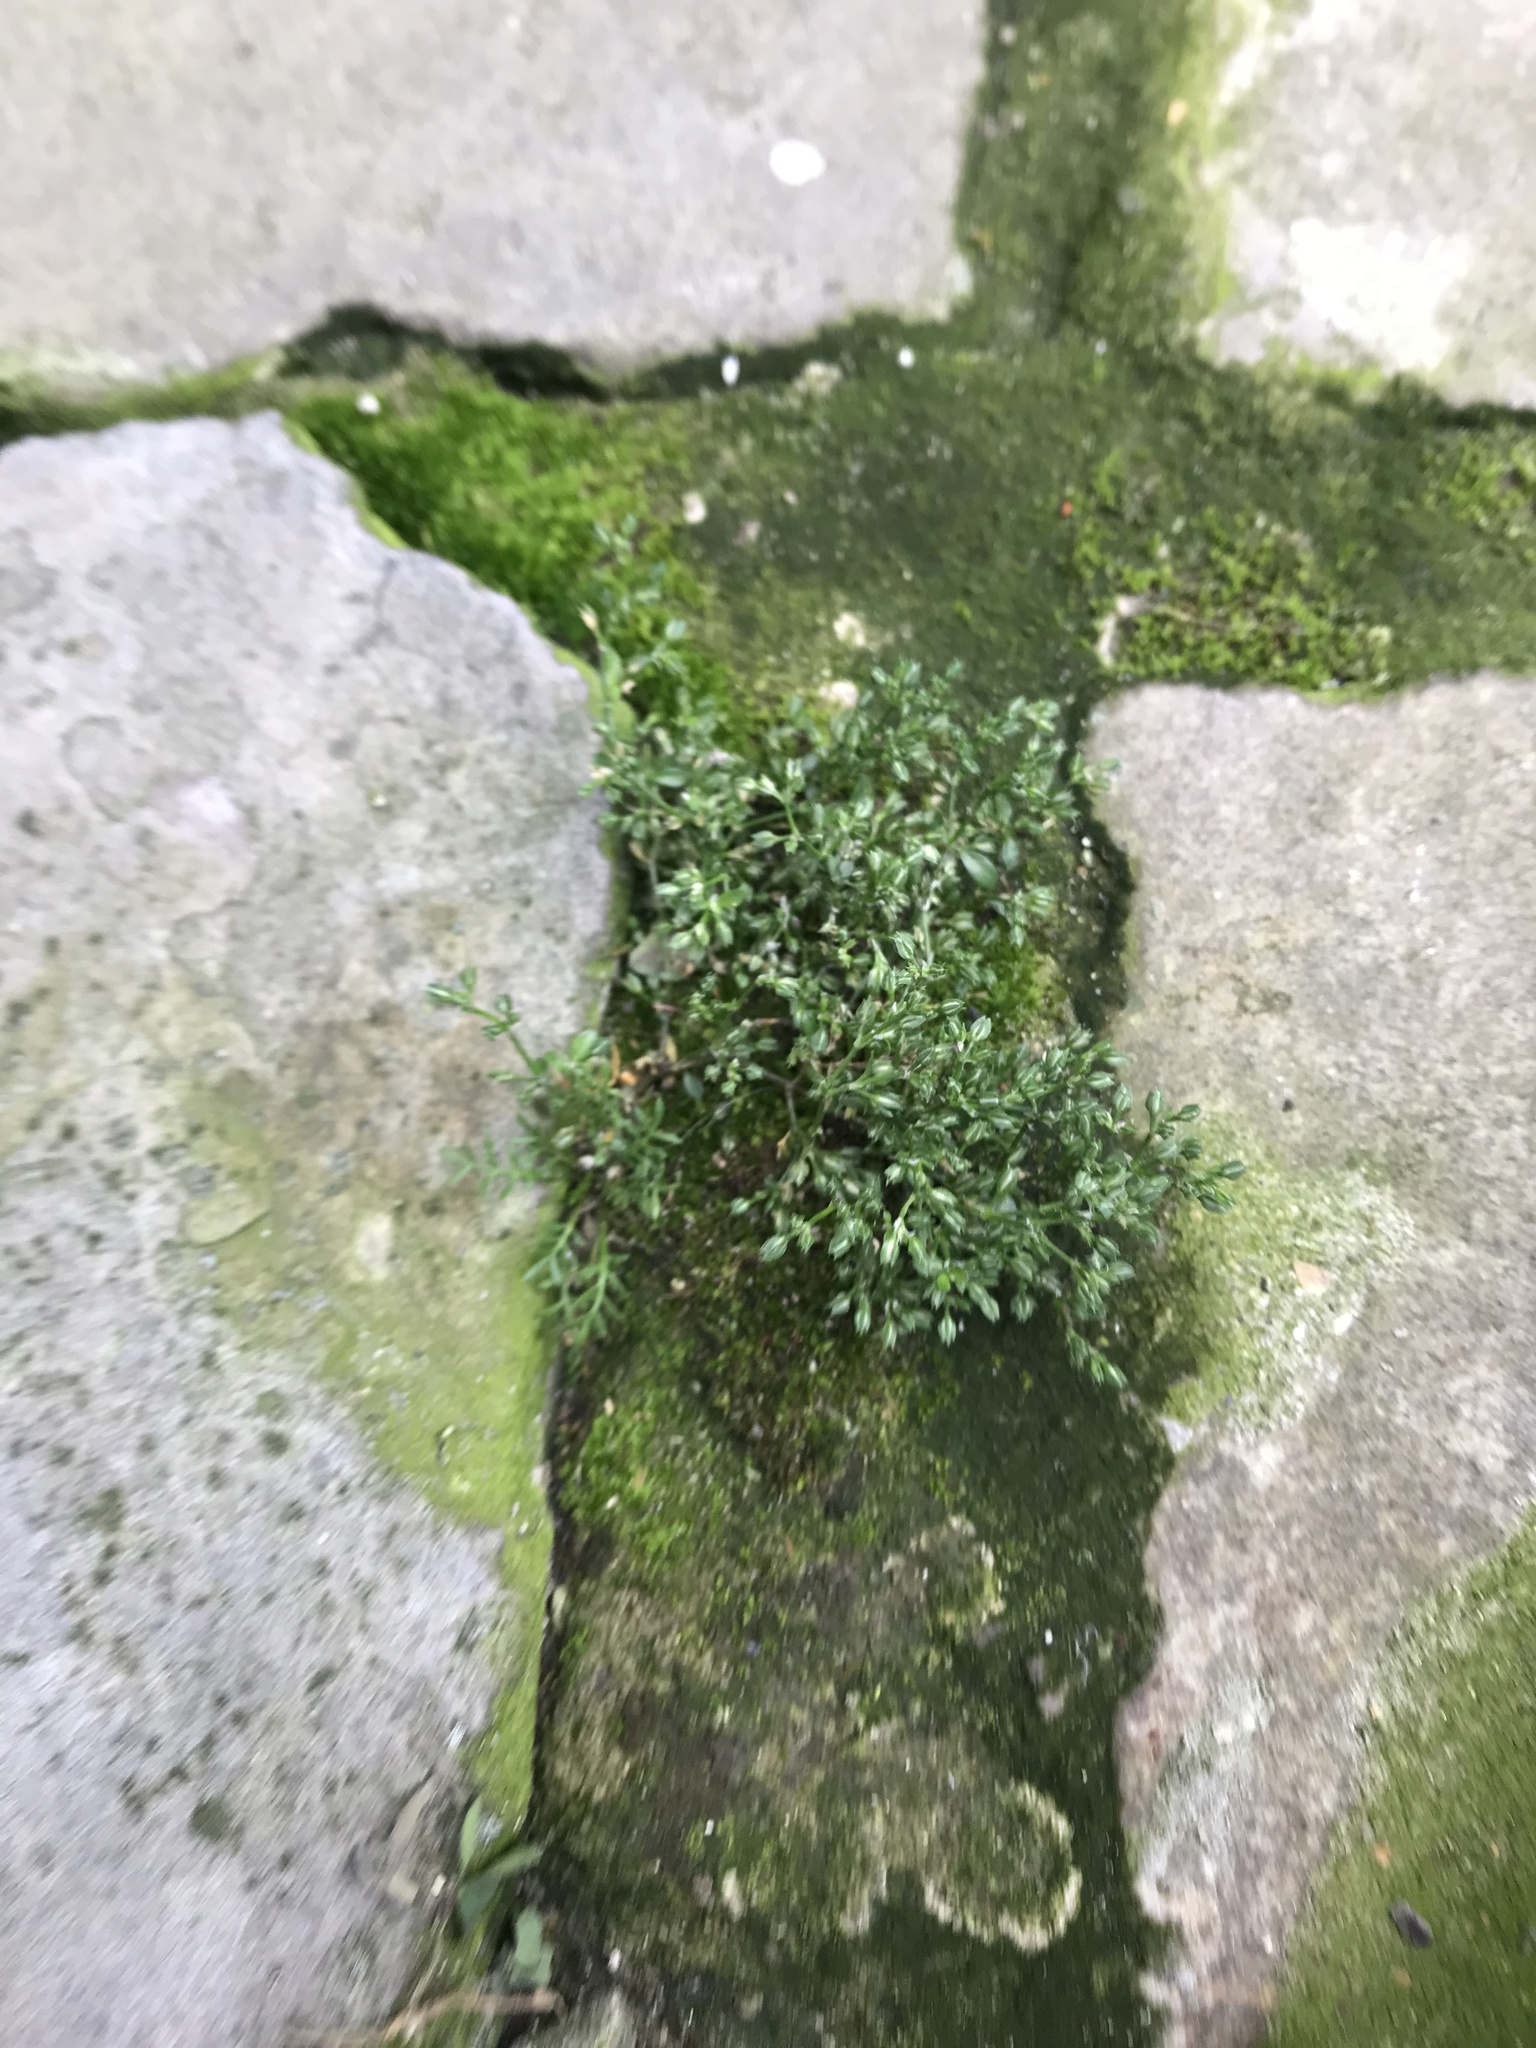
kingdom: Plantae
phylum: Tracheophyta
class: Magnoliopsida
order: Caryophyllales
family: Caryophyllaceae
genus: Polycarpon
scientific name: Polycarpon tetraphyllum
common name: Four-leaved all-seed
